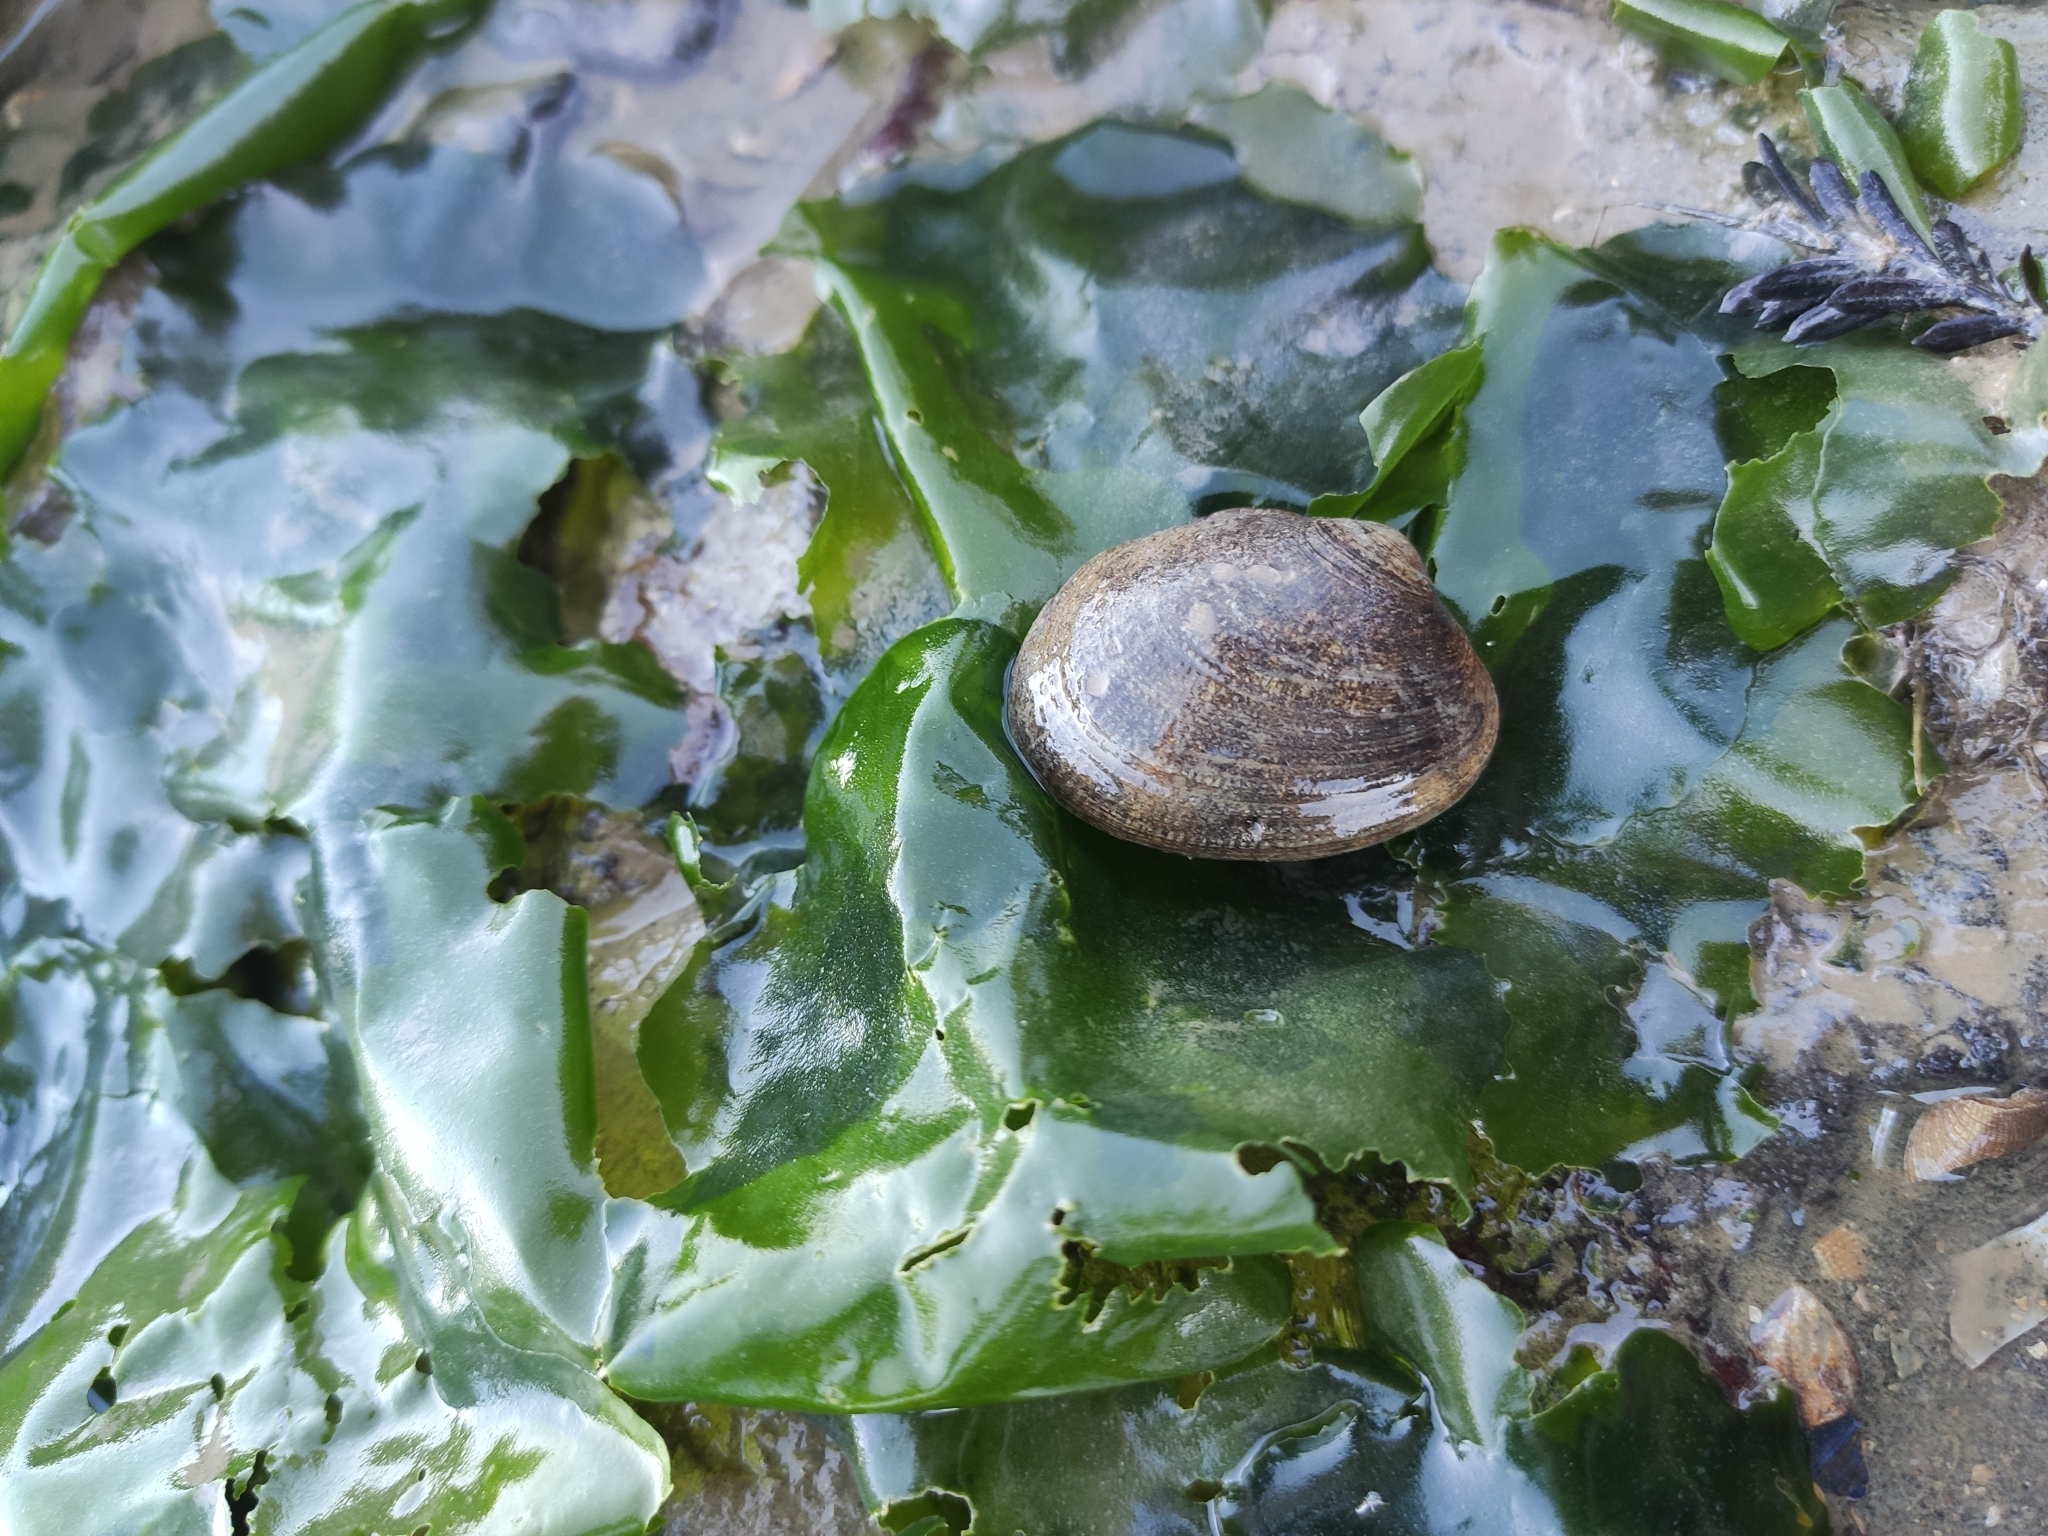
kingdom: Animalia
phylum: Mollusca
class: Bivalvia
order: Venerida
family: Veneridae
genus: Ruditapes
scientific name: Ruditapes philippinarum
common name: Manila clam
